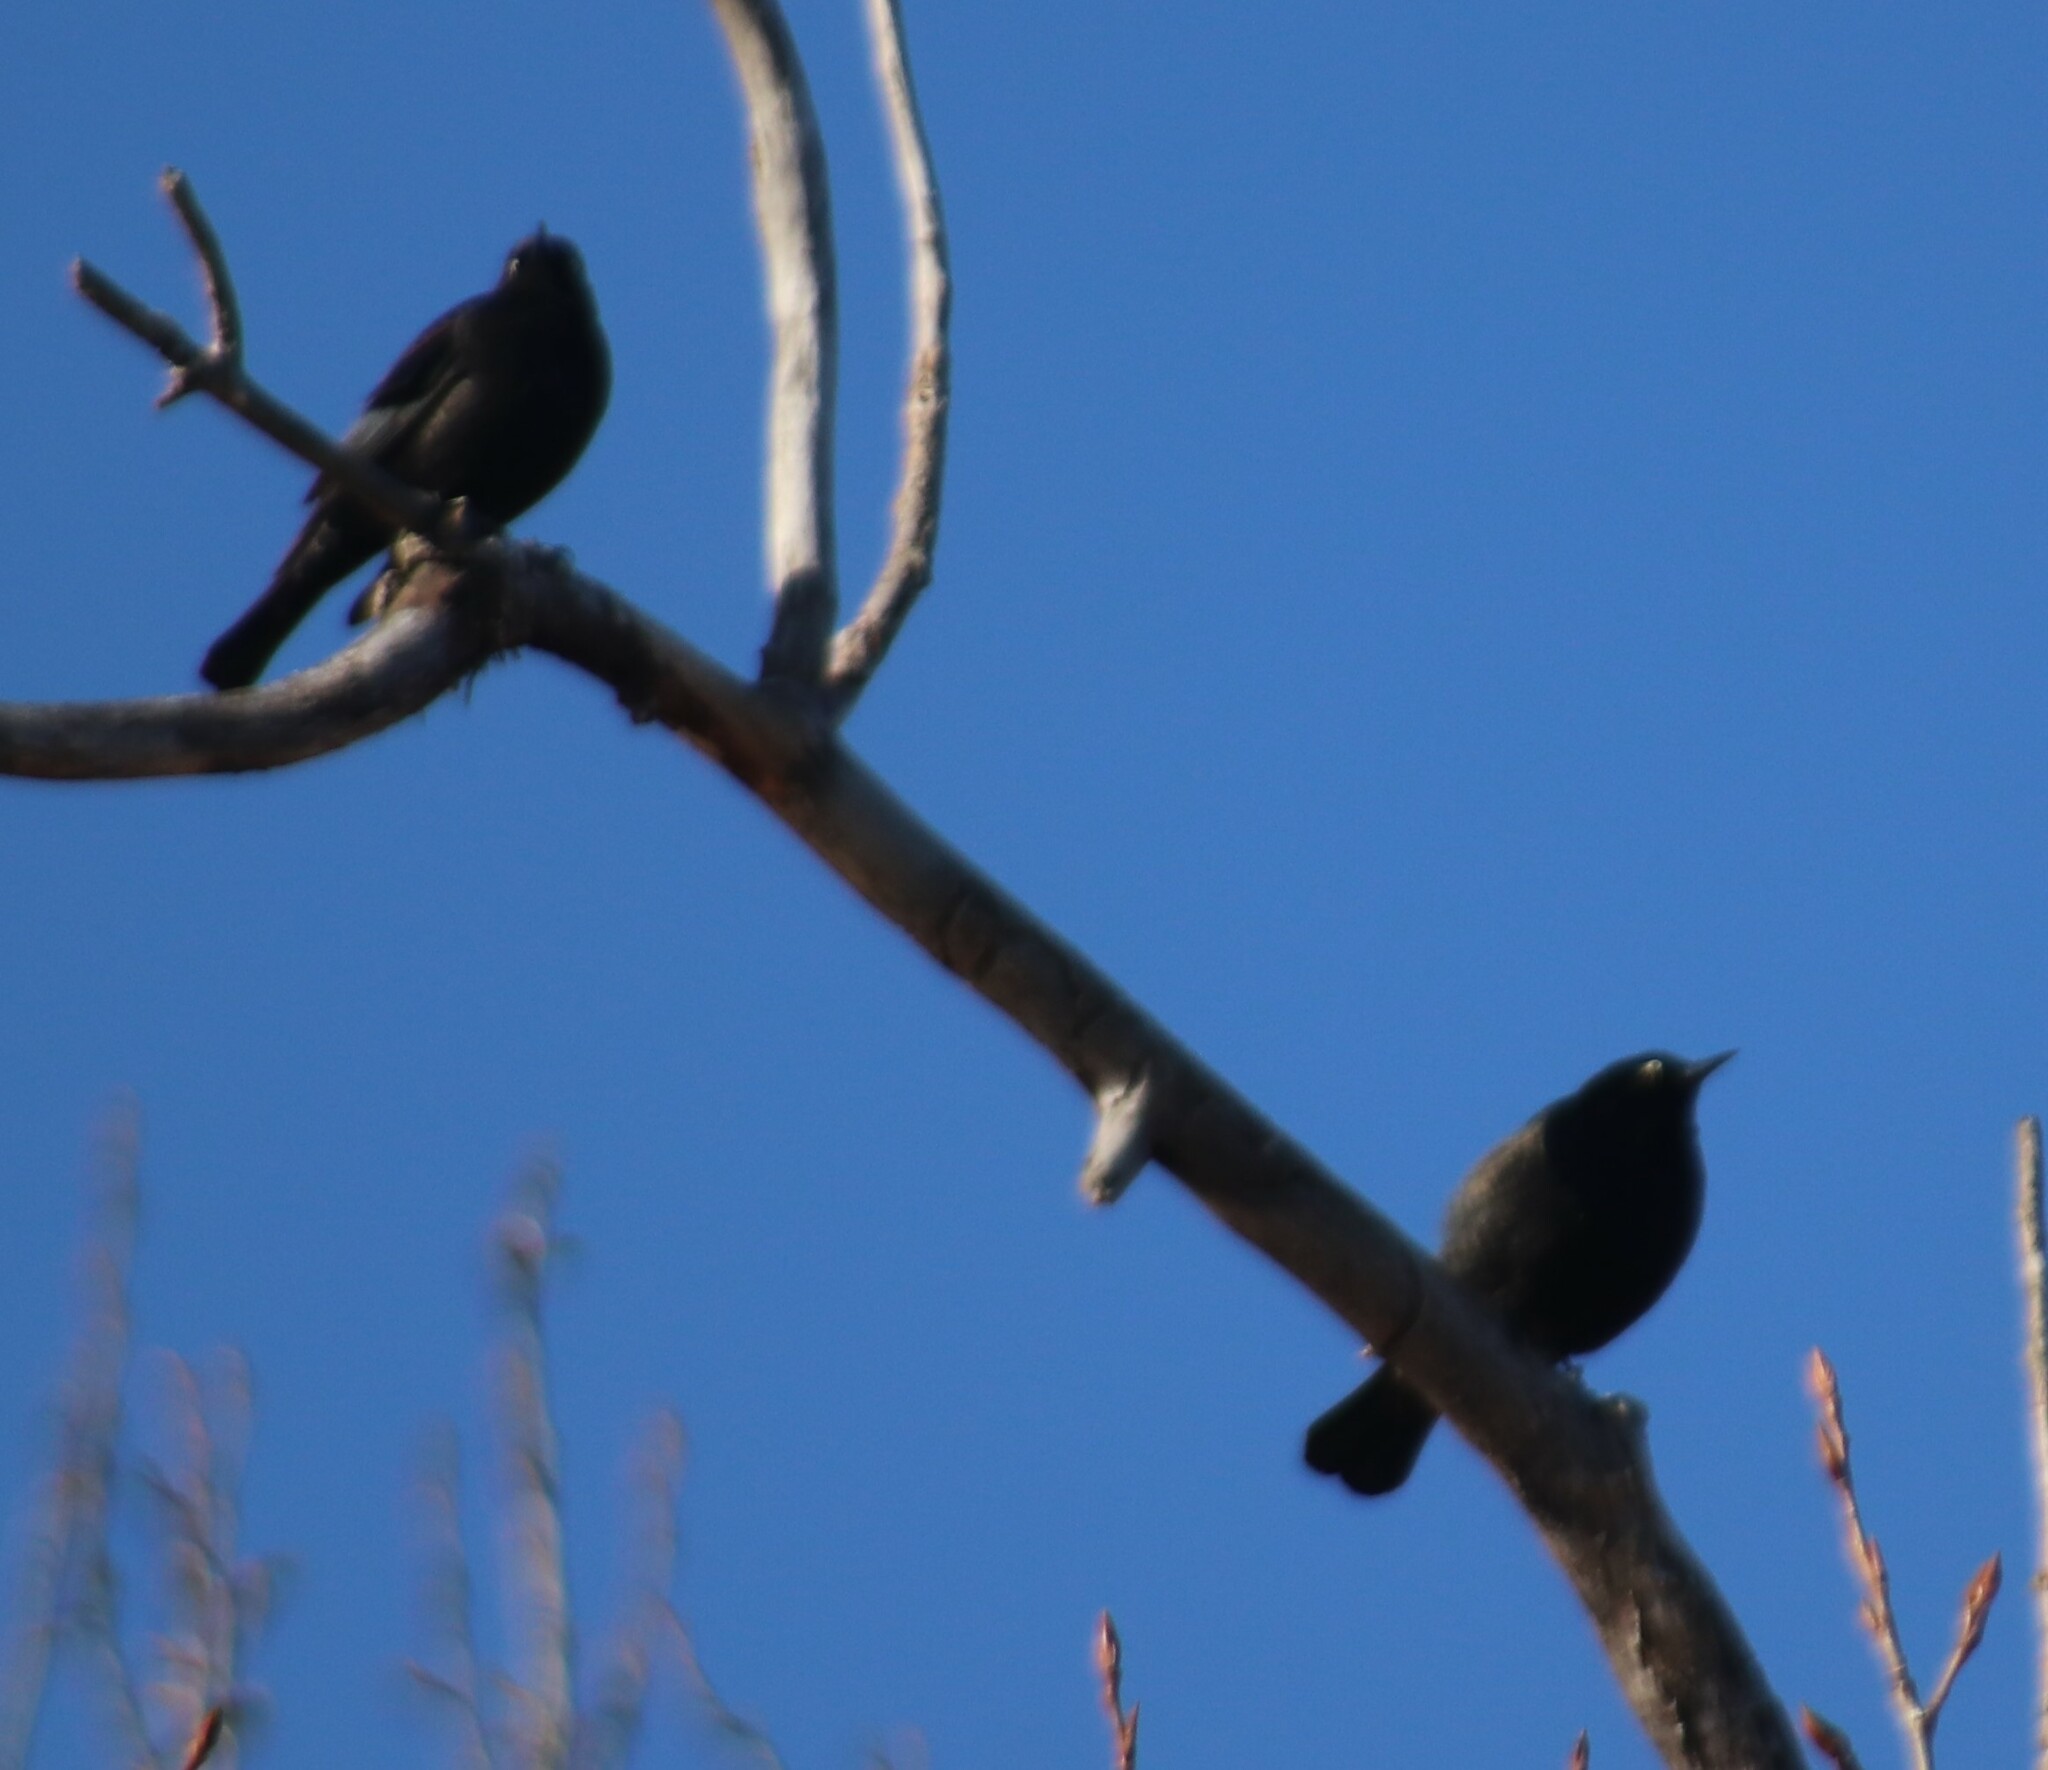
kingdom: Animalia
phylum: Chordata
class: Aves
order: Passeriformes
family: Icteridae
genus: Euphagus
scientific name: Euphagus carolinus
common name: Rusty blackbird
